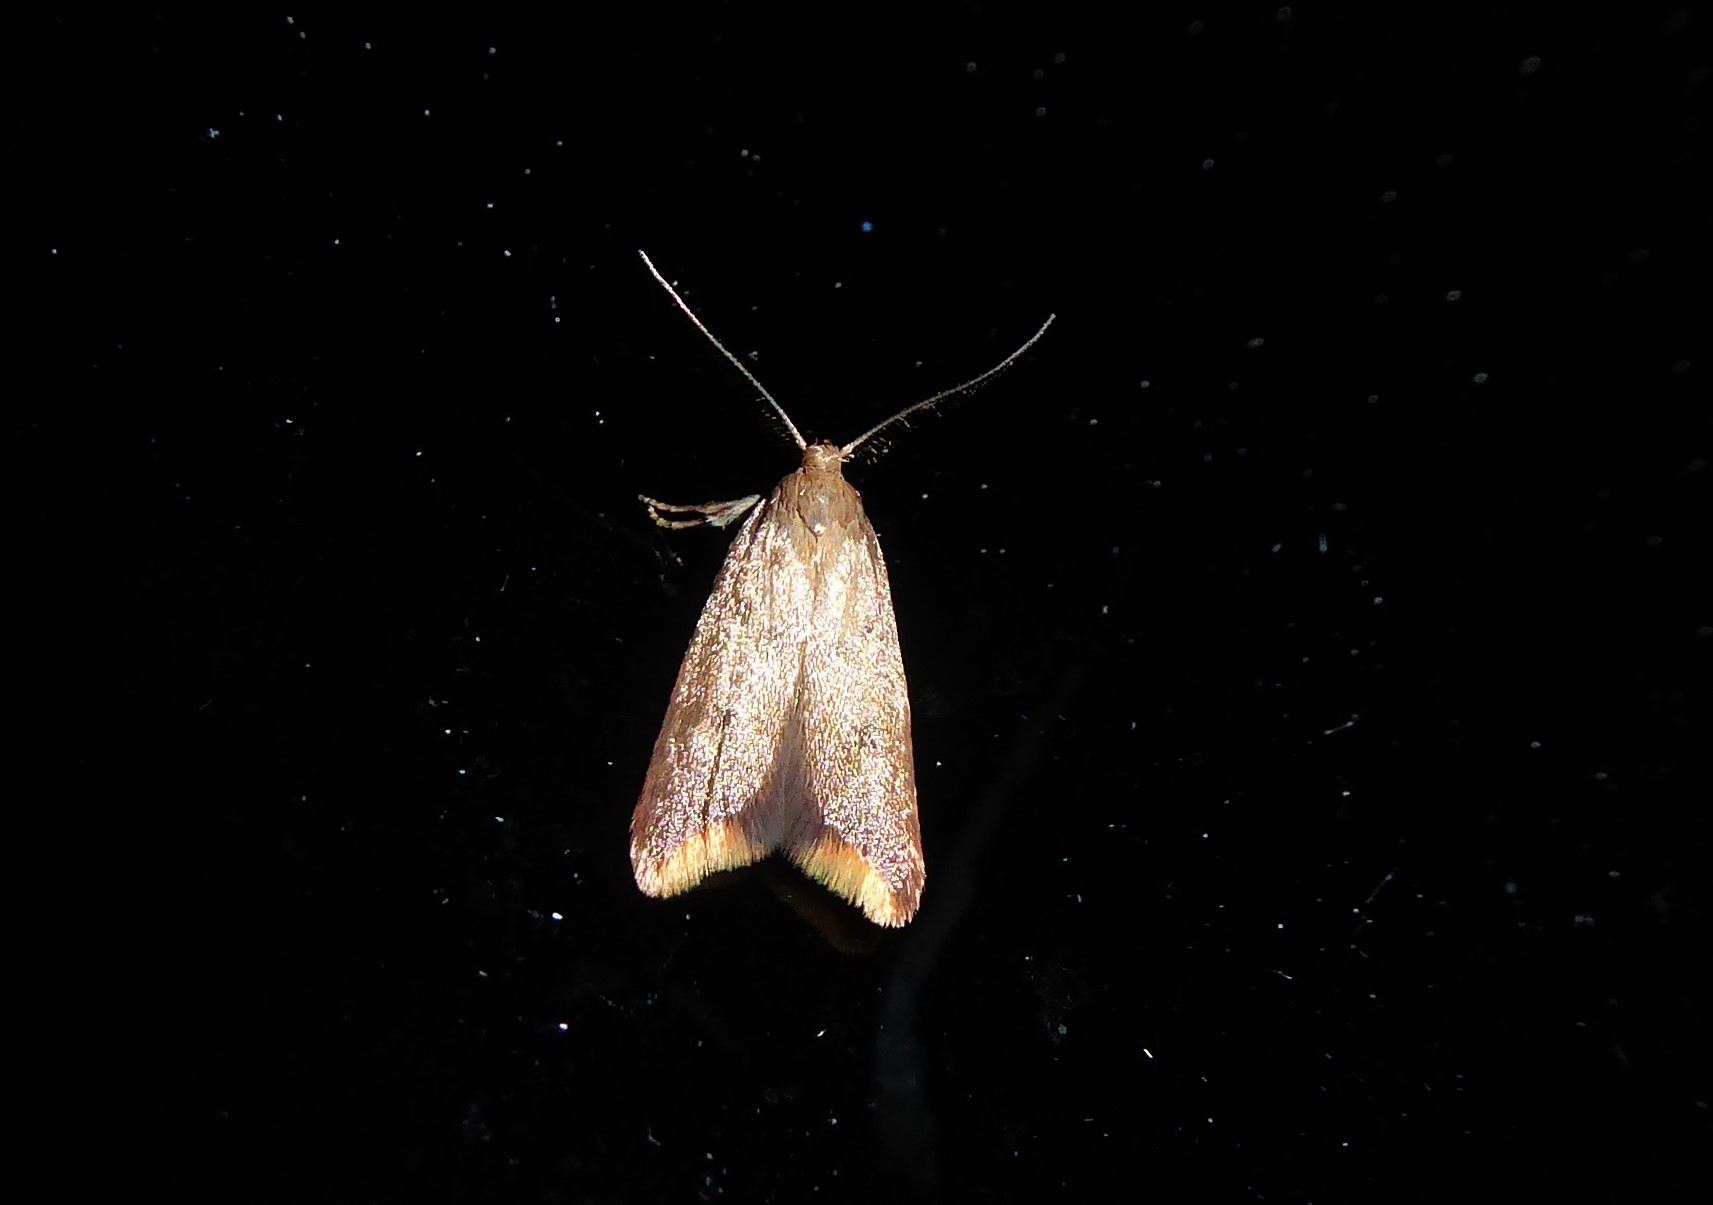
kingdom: Animalia
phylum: Arthropoda
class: Insecta
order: Lepidoptera
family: Oecophoridae
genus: Tachystola
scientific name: Tachystola acroxantha
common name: Ruddy streak
